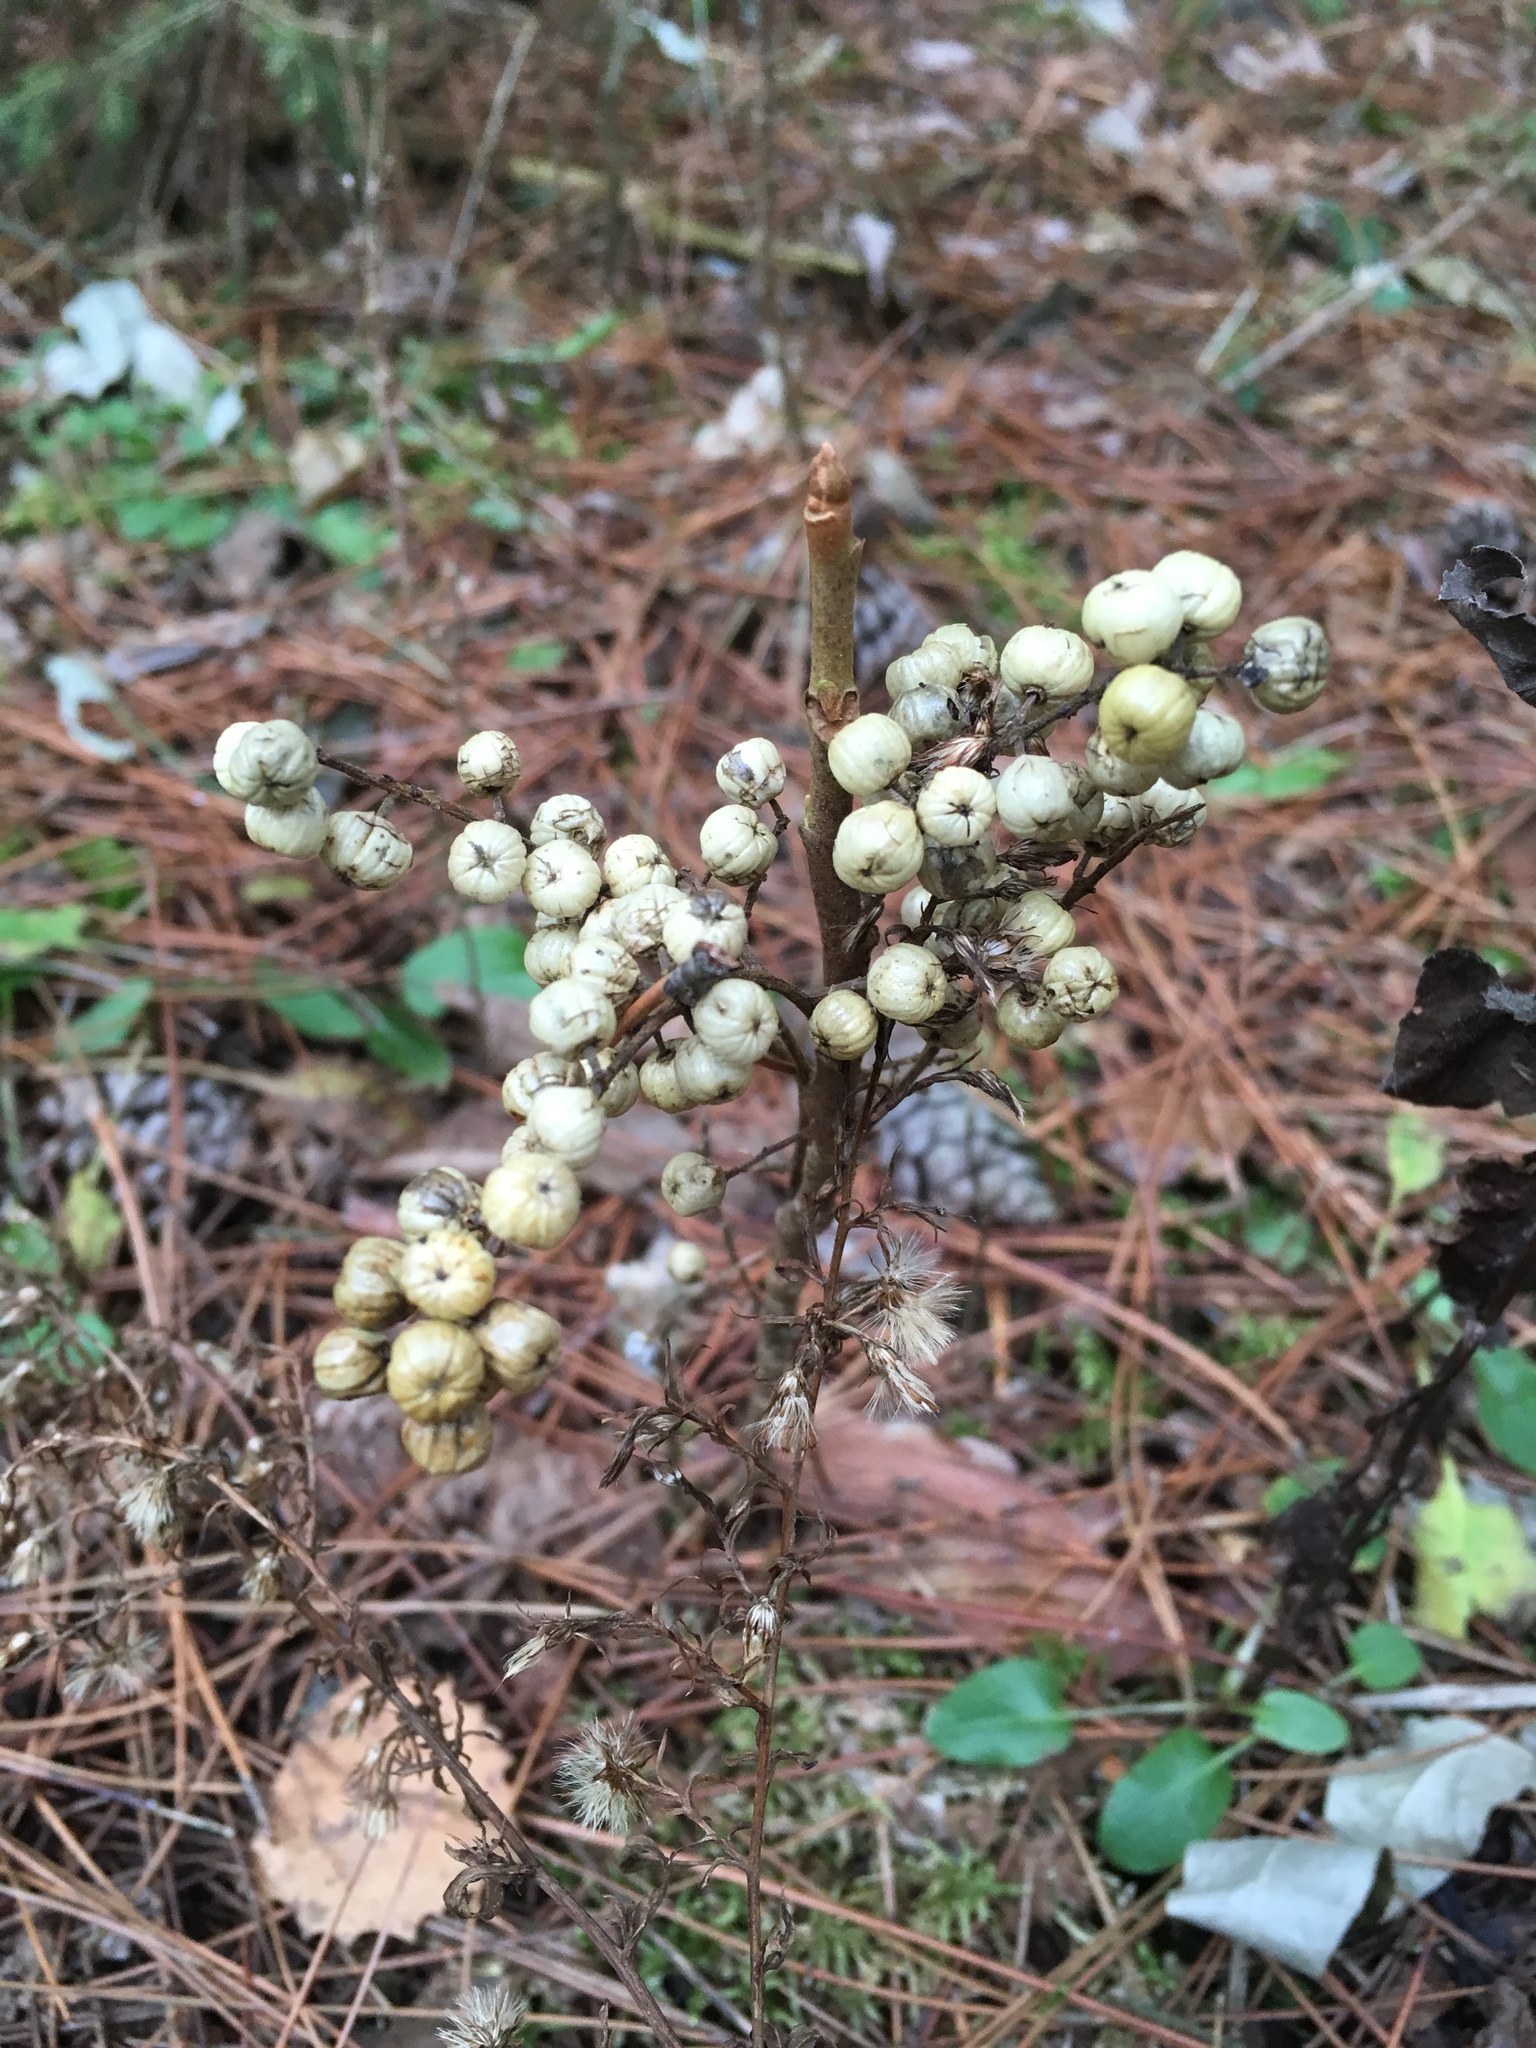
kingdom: Plantae
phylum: Tracheophyta
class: Magnoliopsida
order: Sapindales
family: Anacardiaceae
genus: Toxicodendron
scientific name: Toxicodendron rydbergii
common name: Rydberg's poison-ivy
